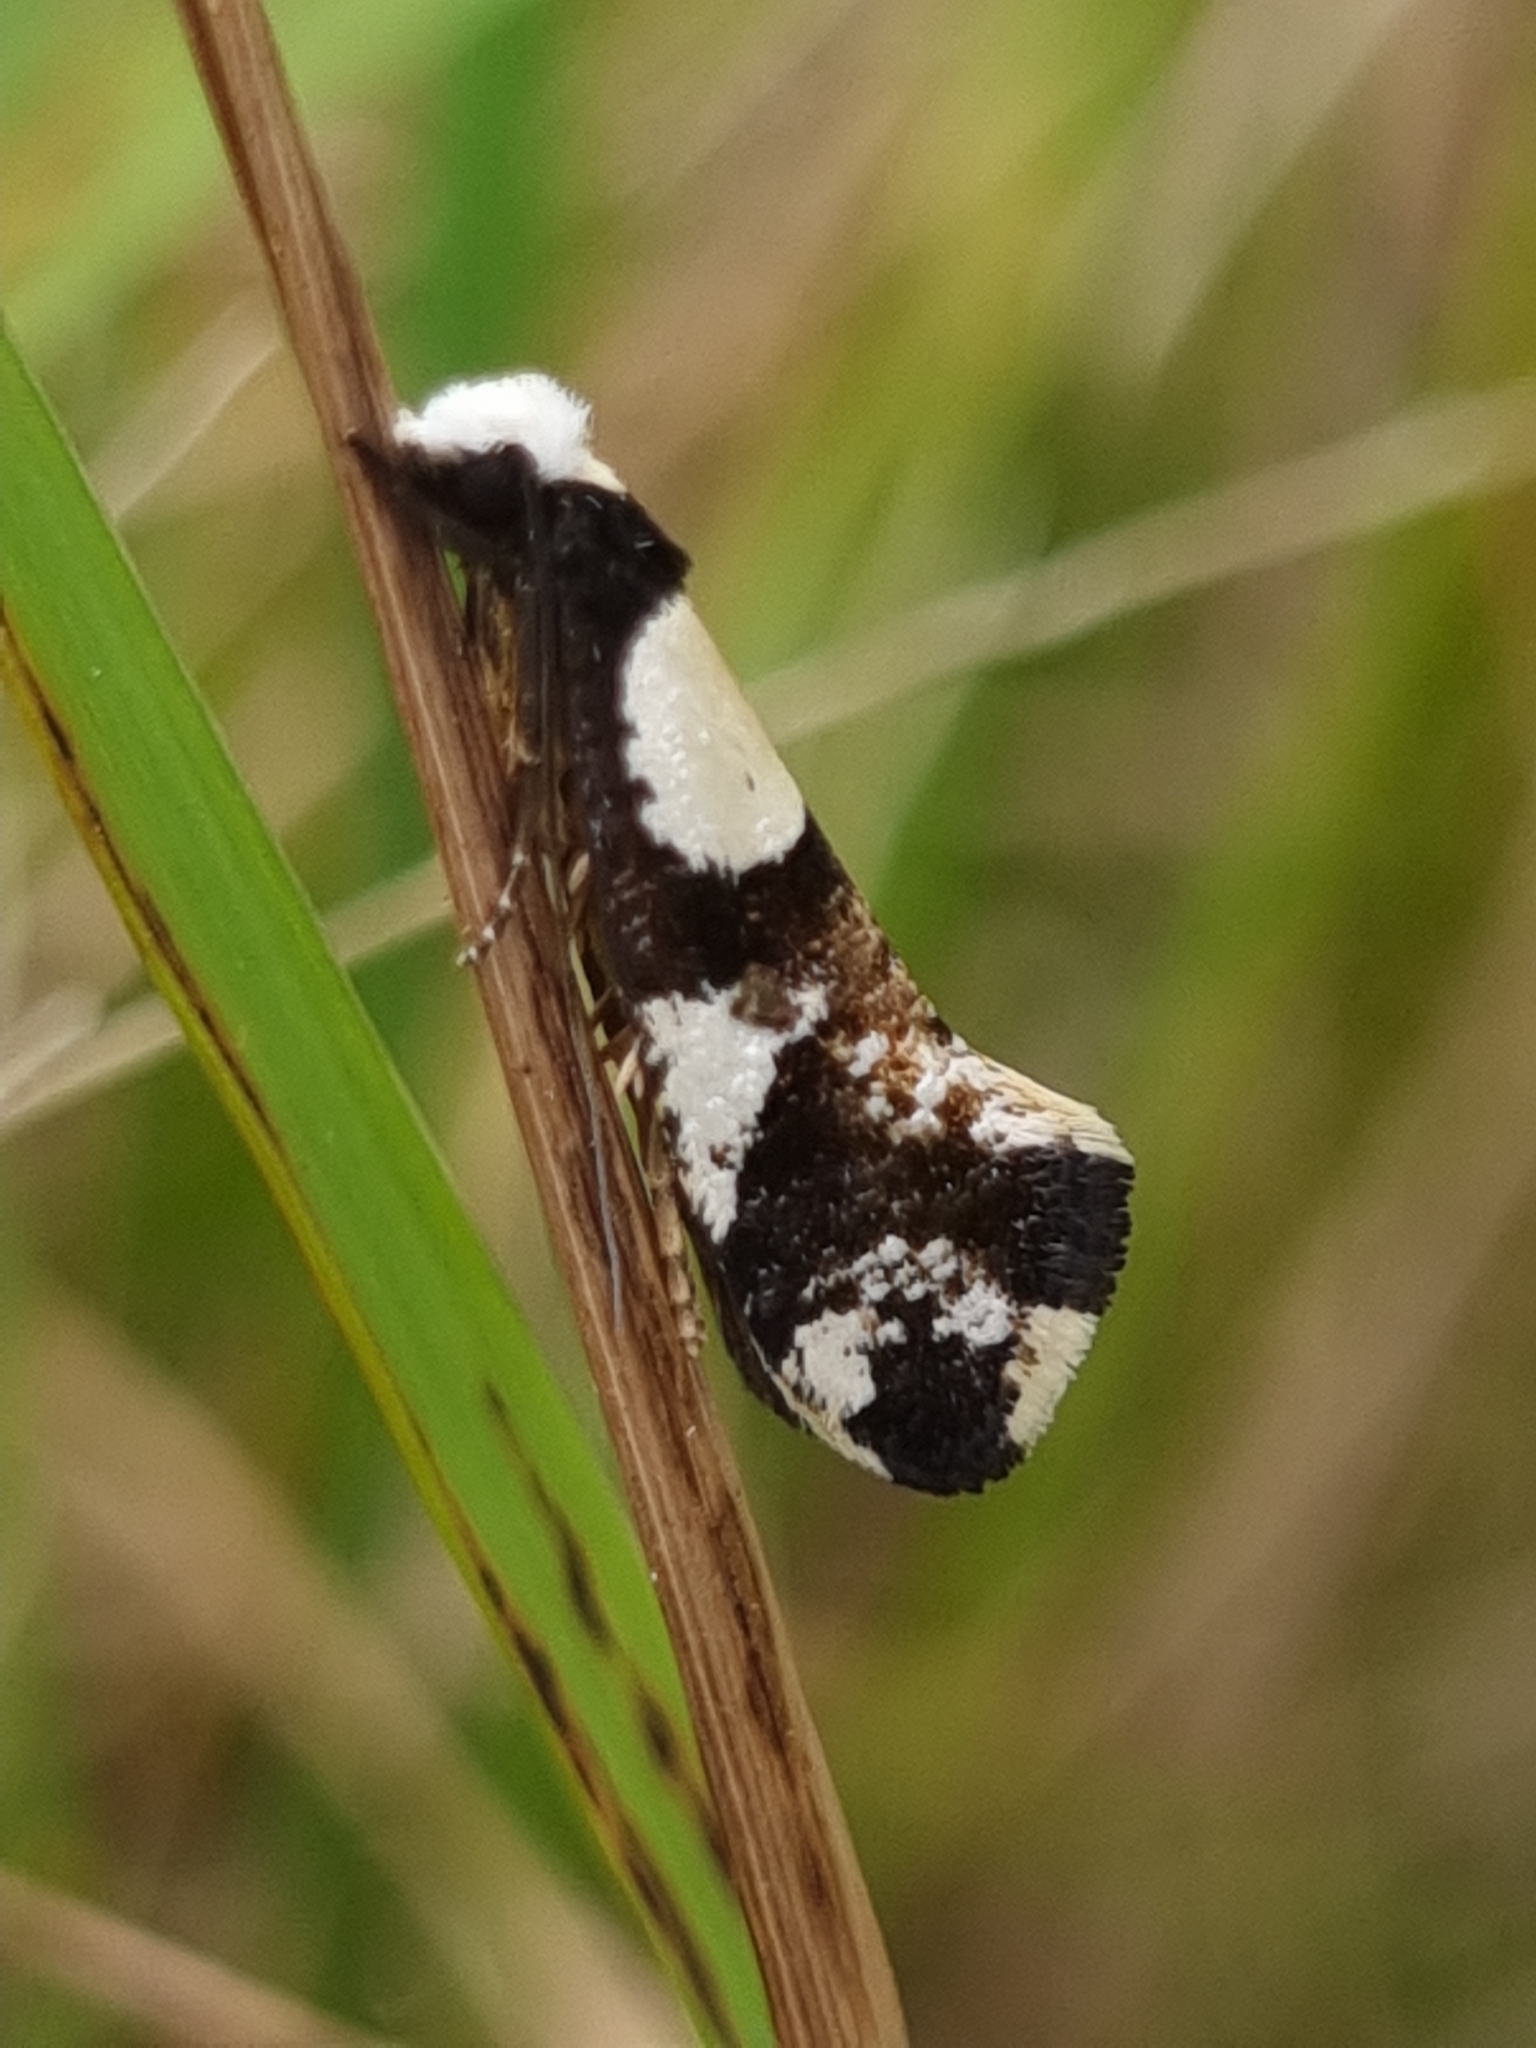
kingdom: Animalia
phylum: Arthropoda
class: Insecta
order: Lepidoptera
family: Tineidae
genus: Monopis
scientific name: Monopis icterogastra
